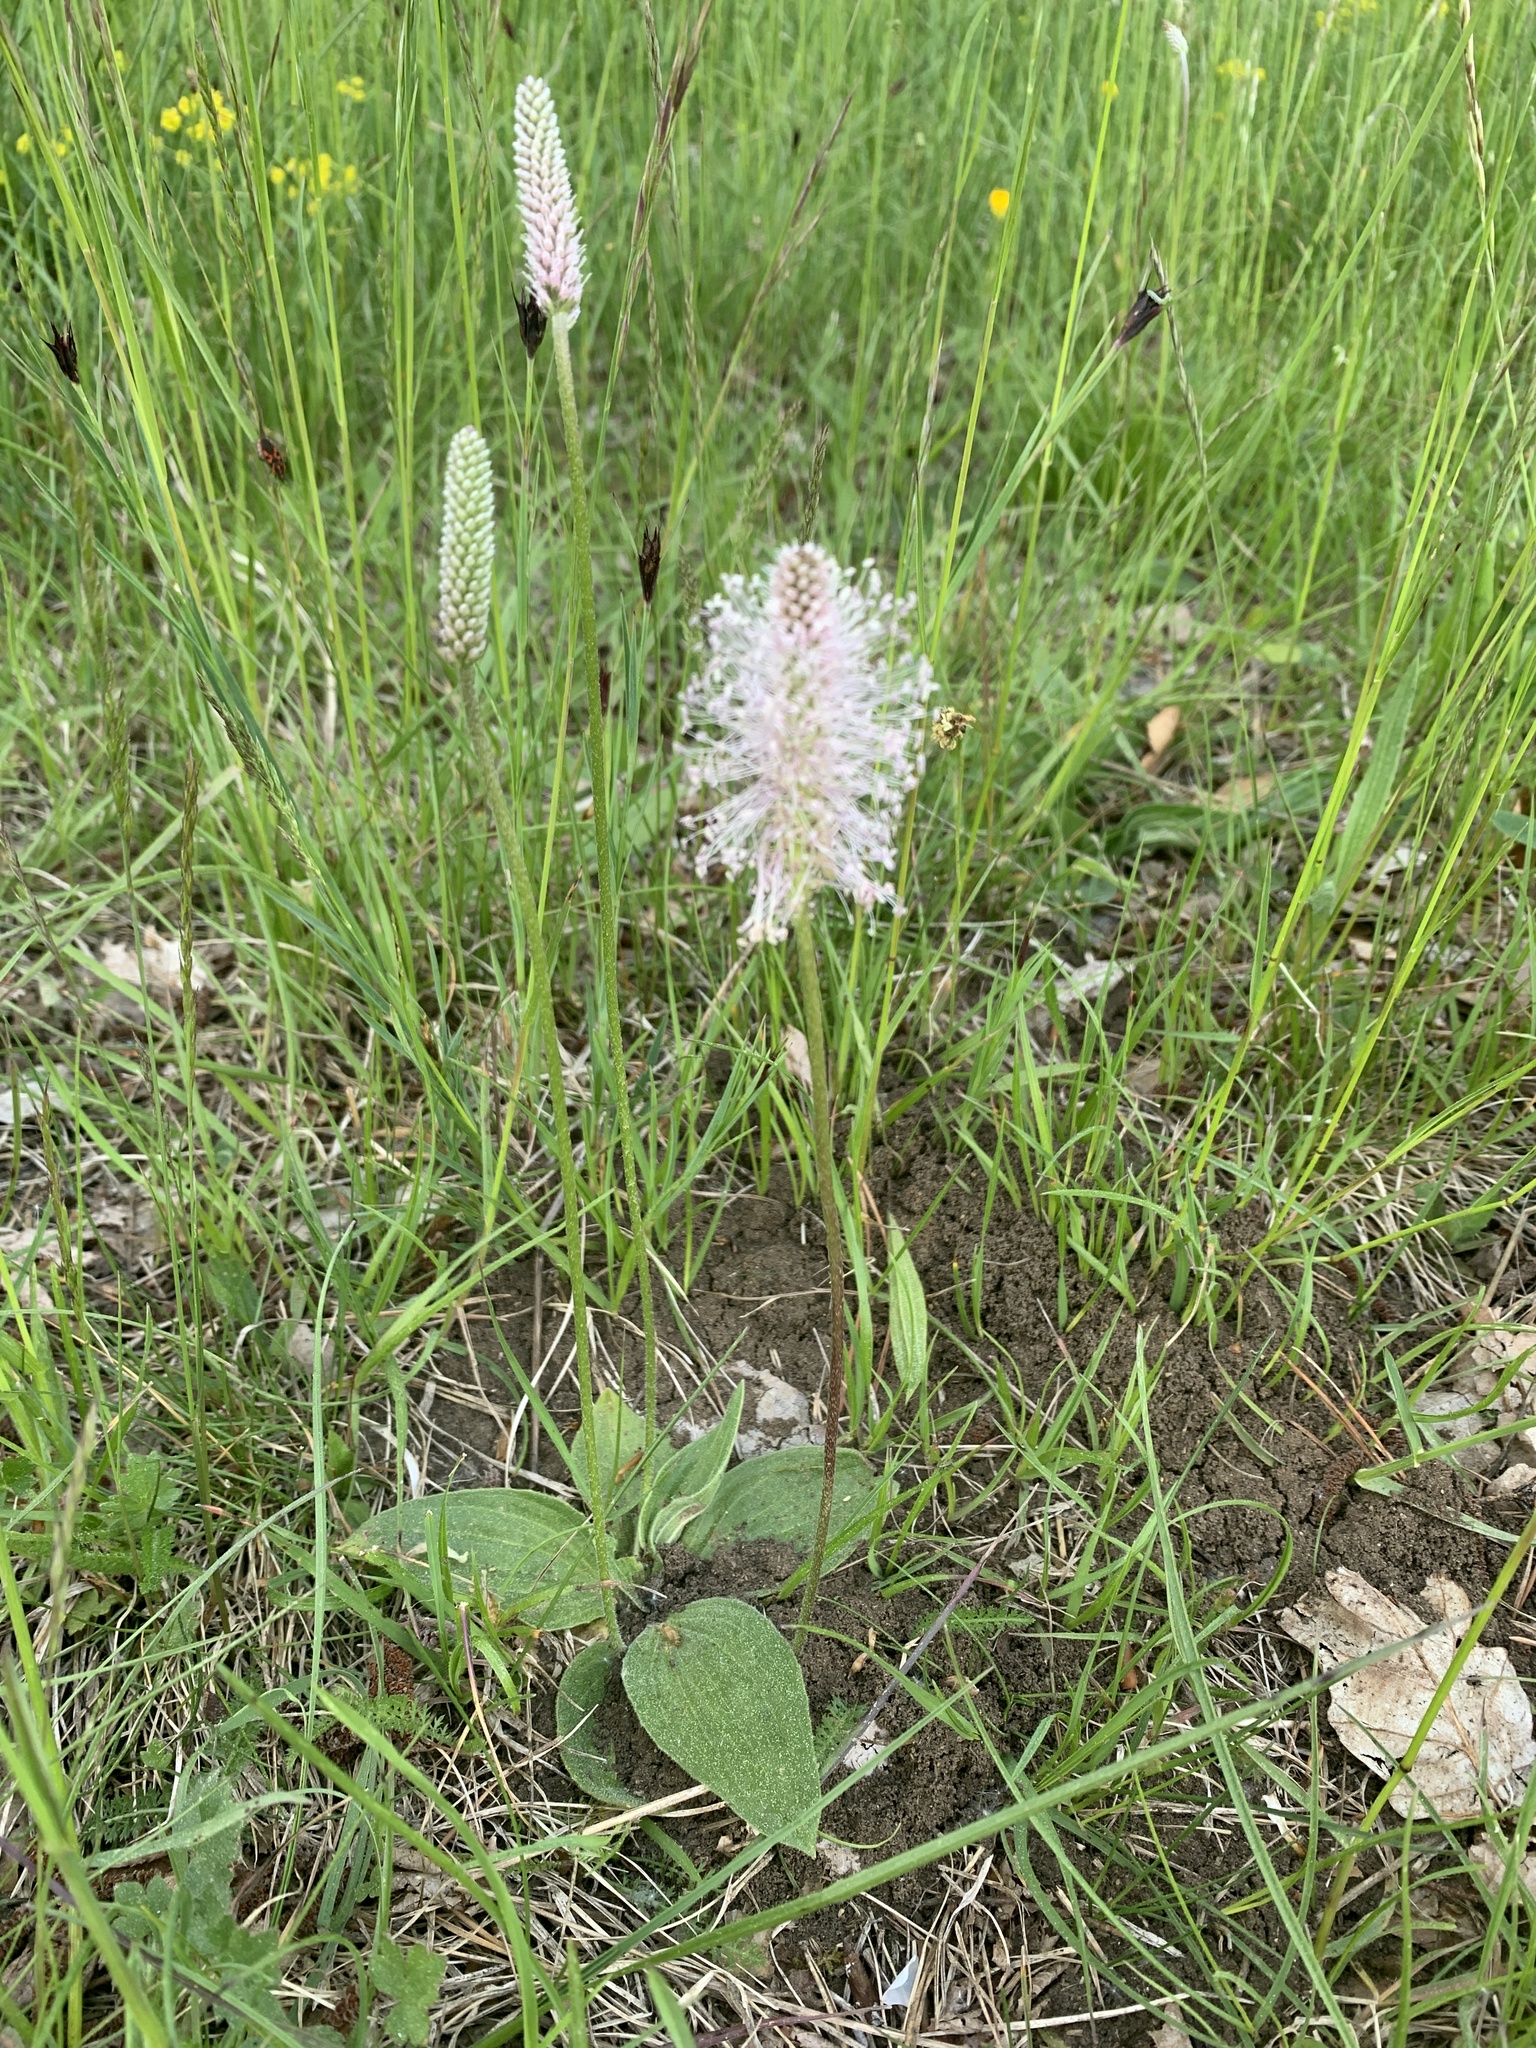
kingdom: Plantae
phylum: Tracheophyta
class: Magnoliopsida
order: Lamiales
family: Plantaginaceae
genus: Plantago
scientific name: Plantago media
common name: Hoary plantain
